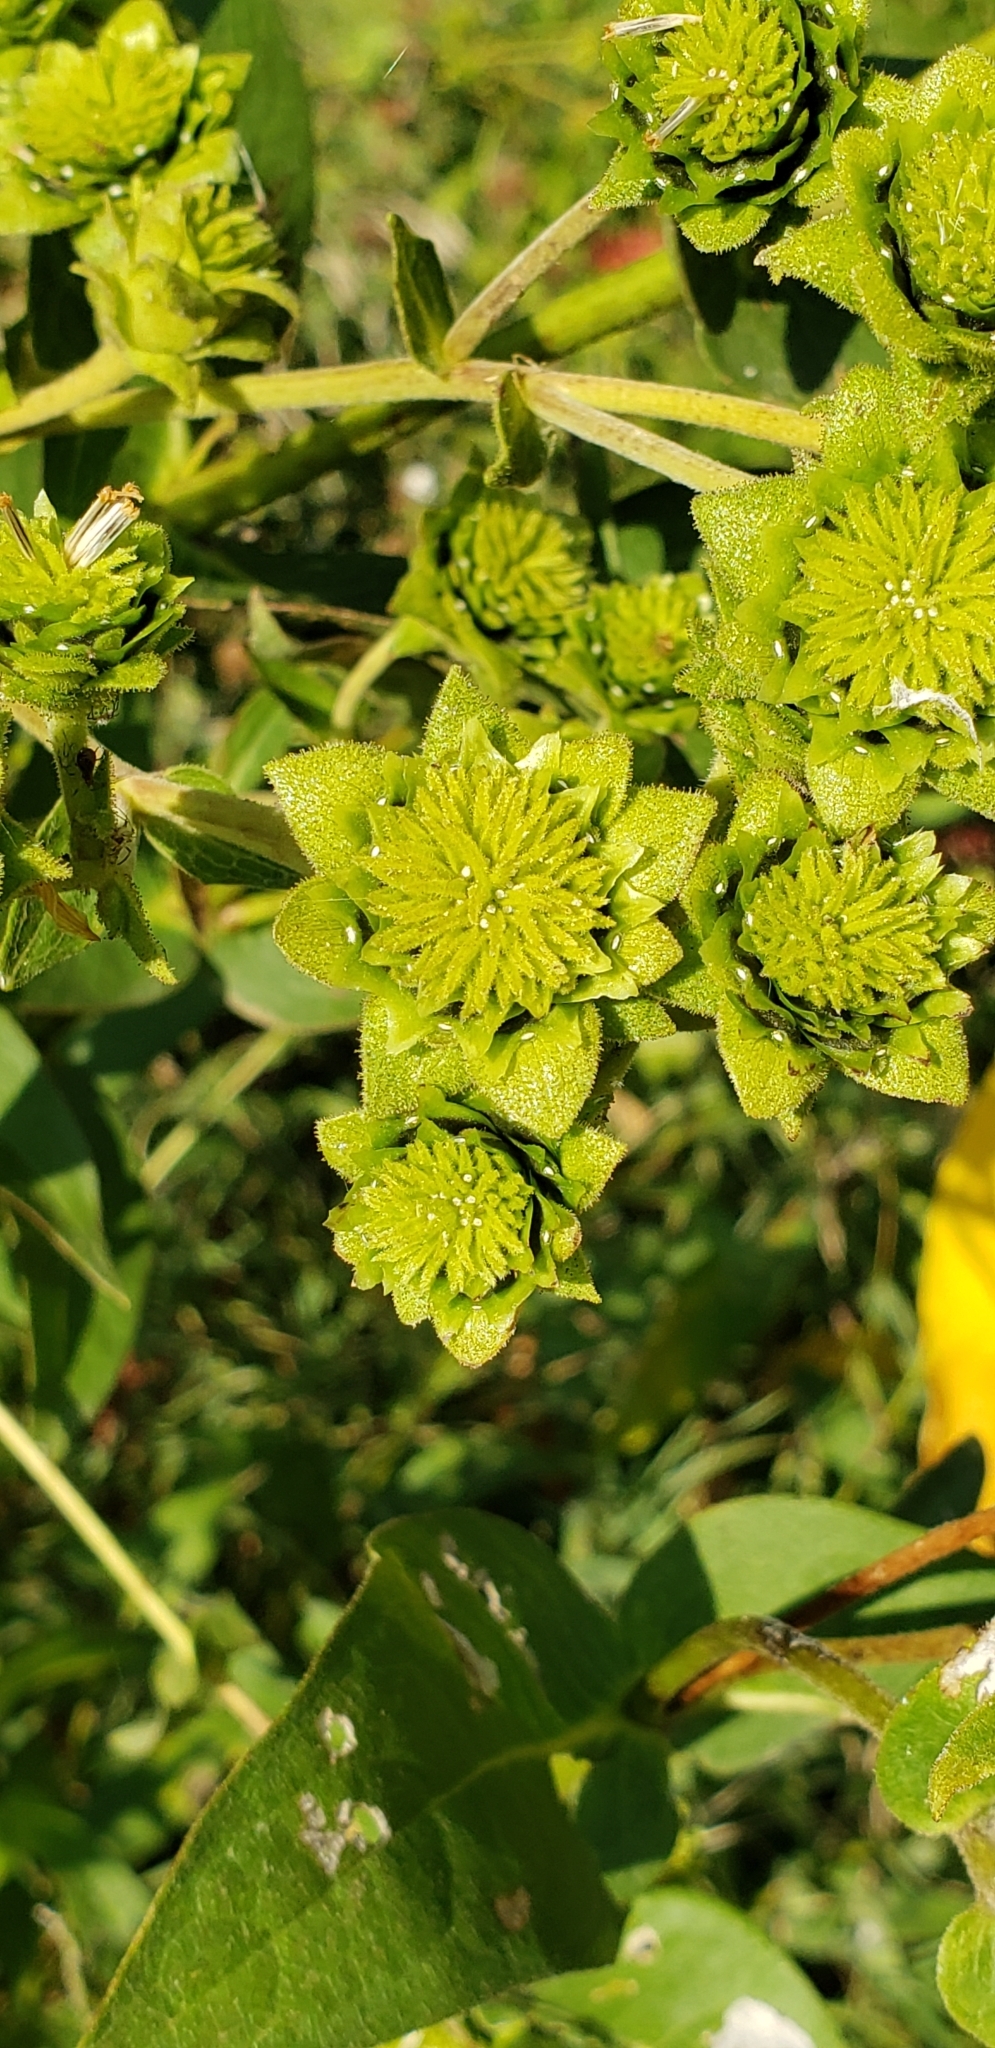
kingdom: Plantae
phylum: Tracheophyta
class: Magnoliopsida
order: Asterales
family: Asteraceae
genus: Silphium
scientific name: Silphium integrifolium
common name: Whole-leaf rosinweed
